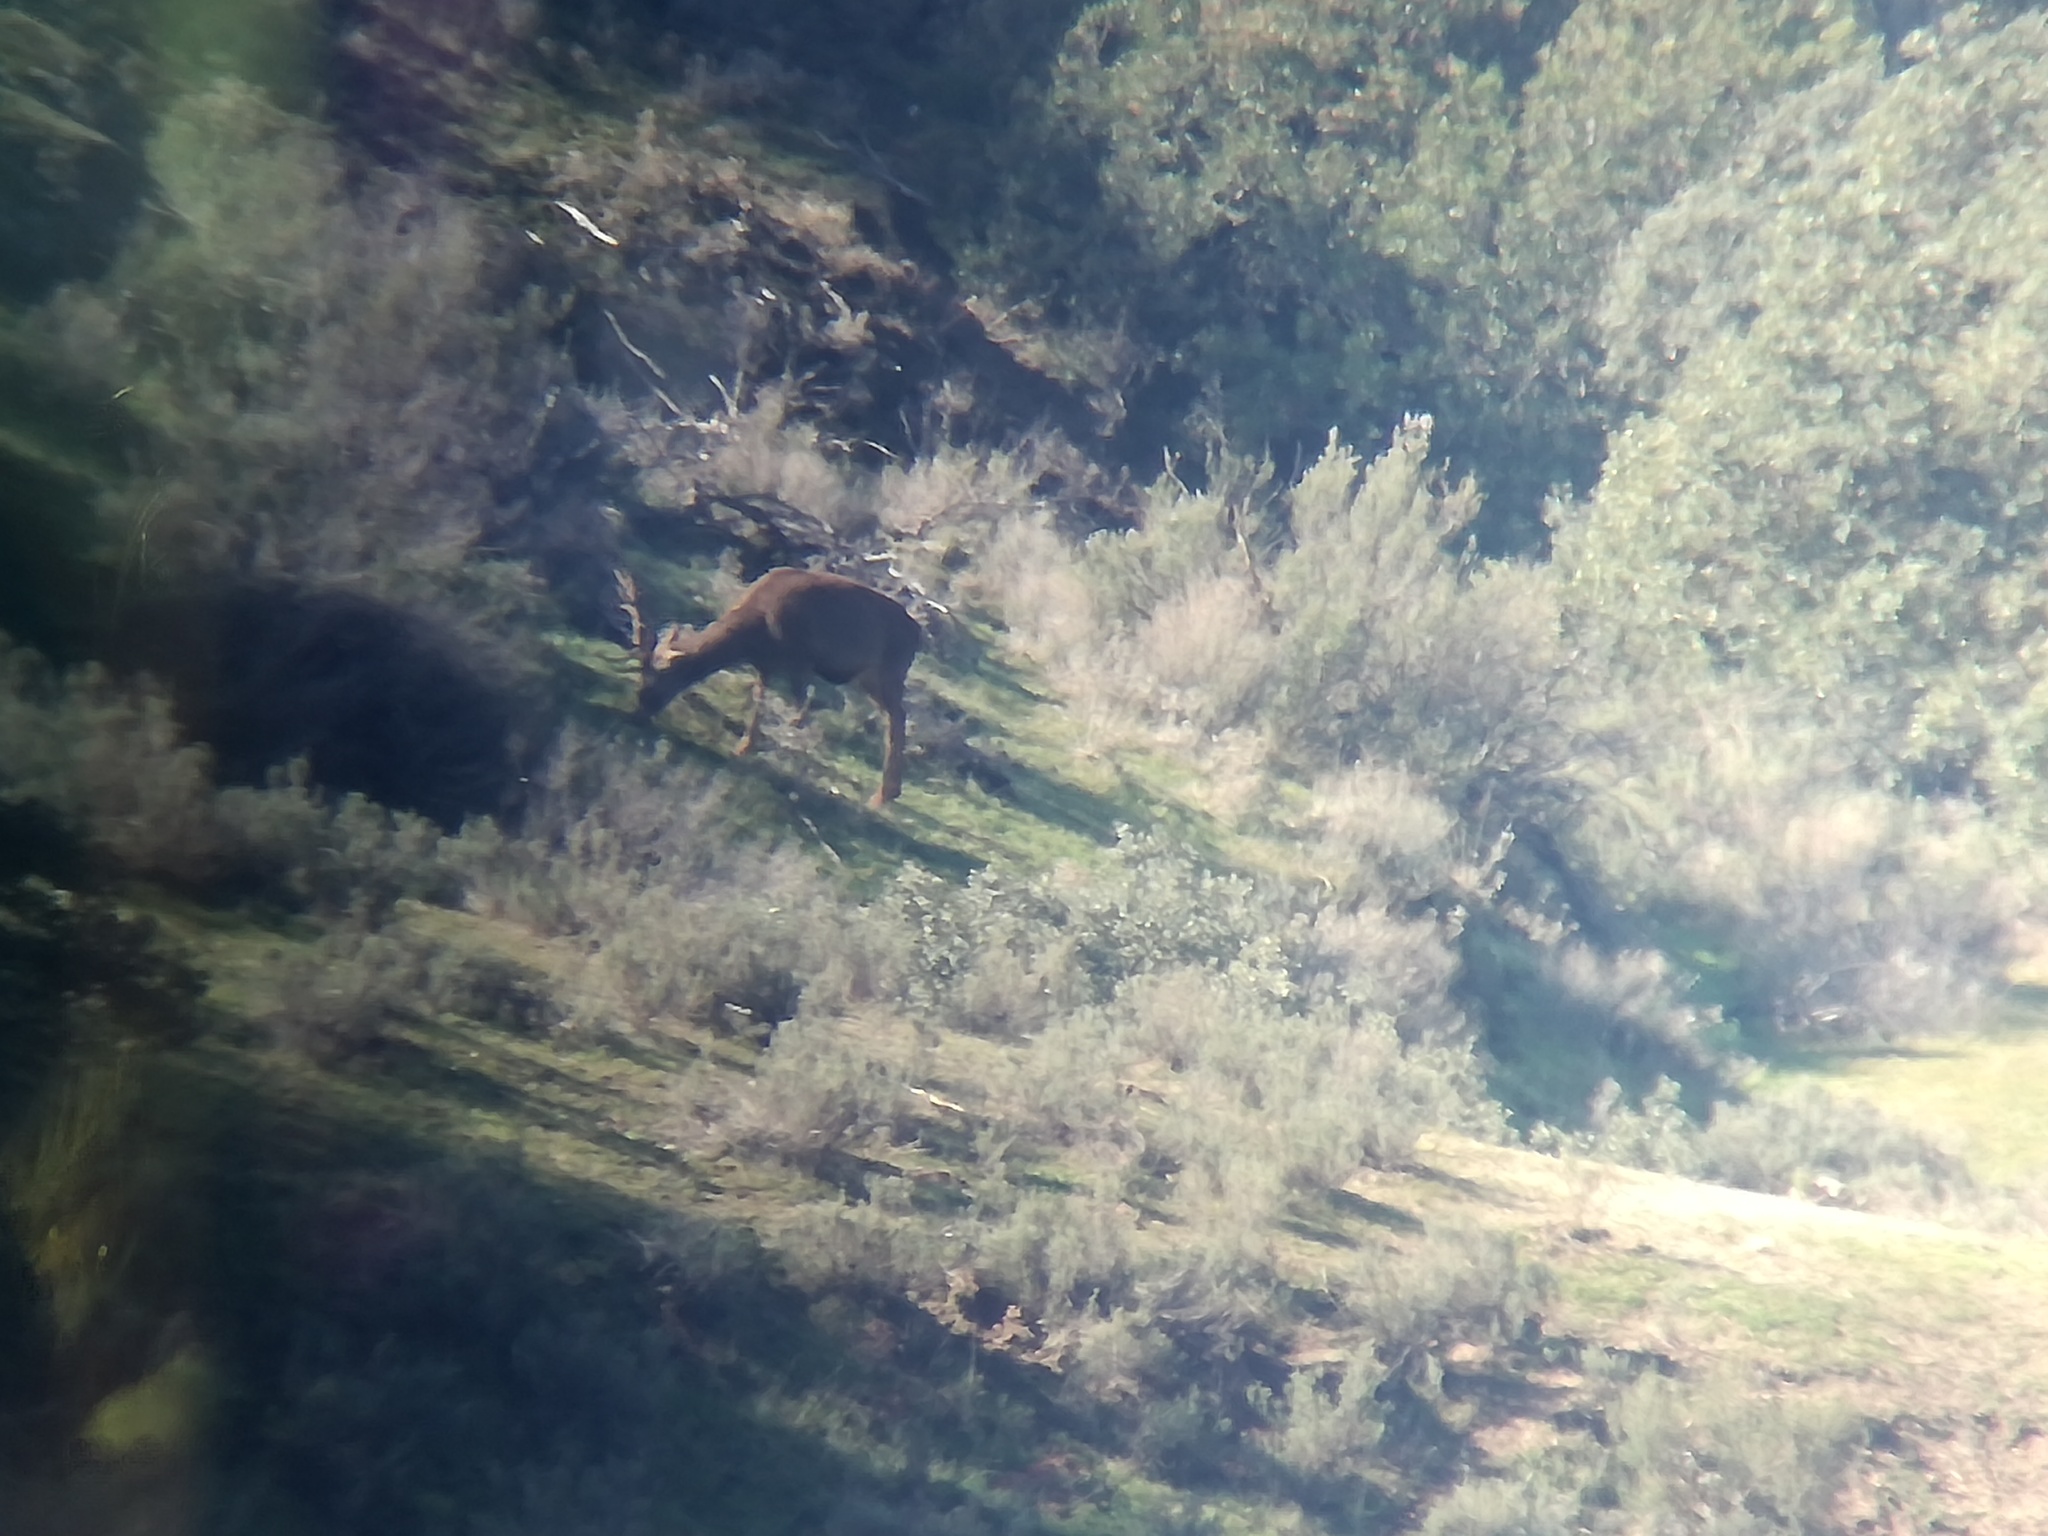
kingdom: Animalia
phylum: Chordata
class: Mammalia
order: Artiodactyla
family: Cervidae
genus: Cervus
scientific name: Cervus elaphus
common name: Red deer
